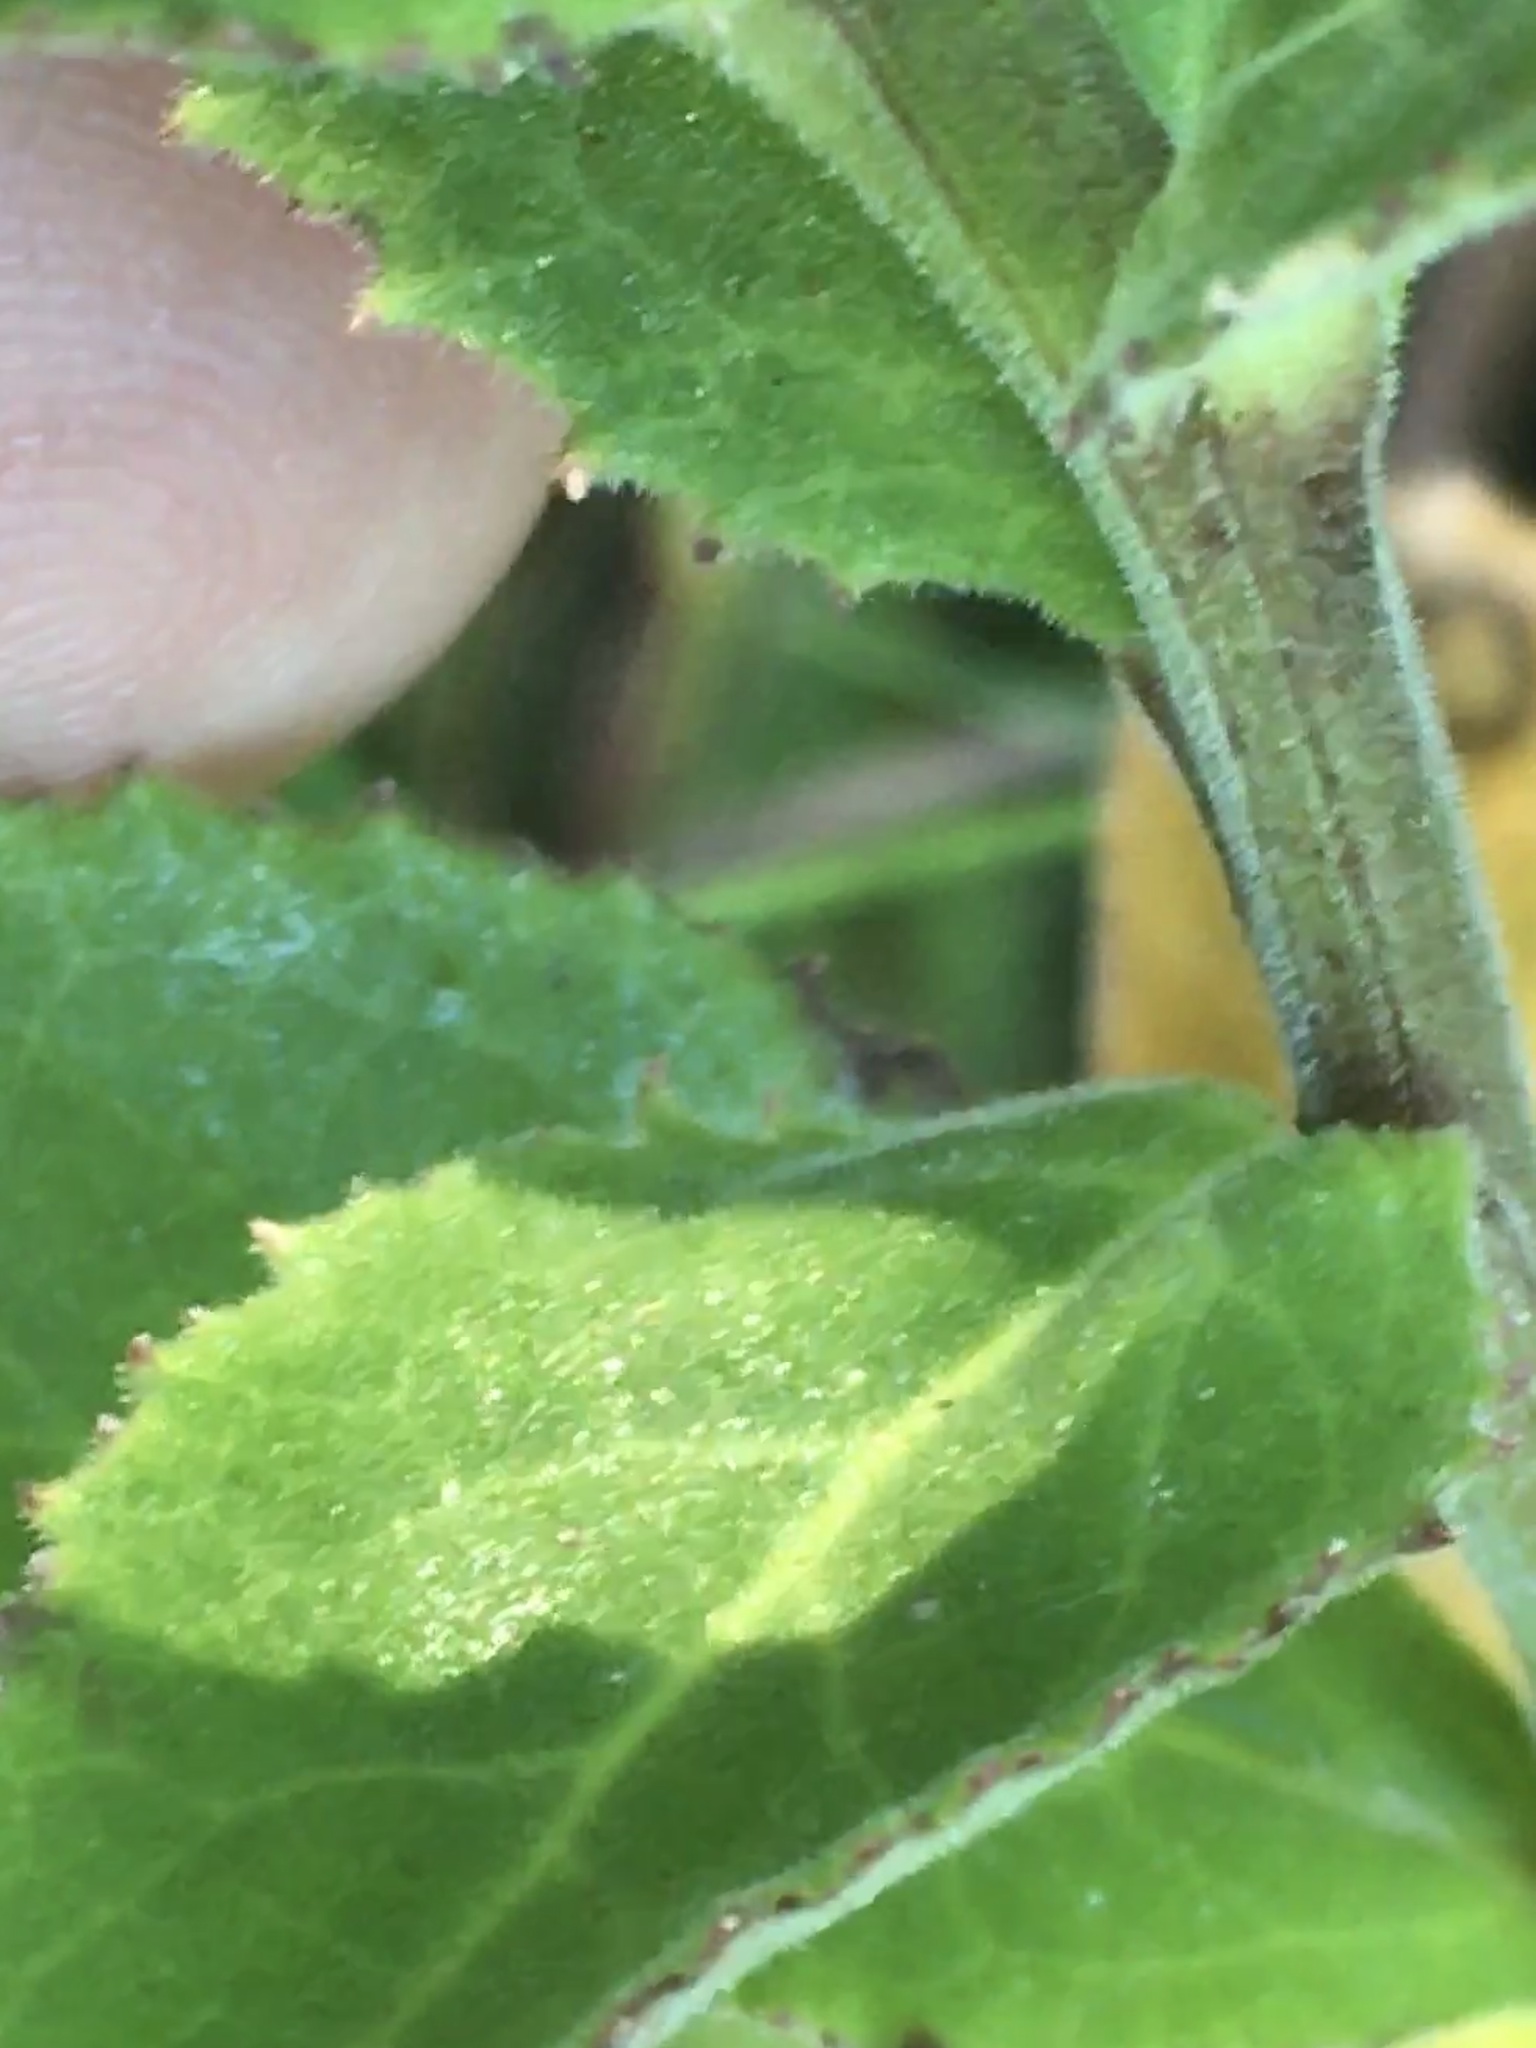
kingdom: Plantae
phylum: Tracheophyta
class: Magnoliopsida
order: Asterales
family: Campanulaceae
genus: Lobelia
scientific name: Lobelia puberula
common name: Purple dewdrop
